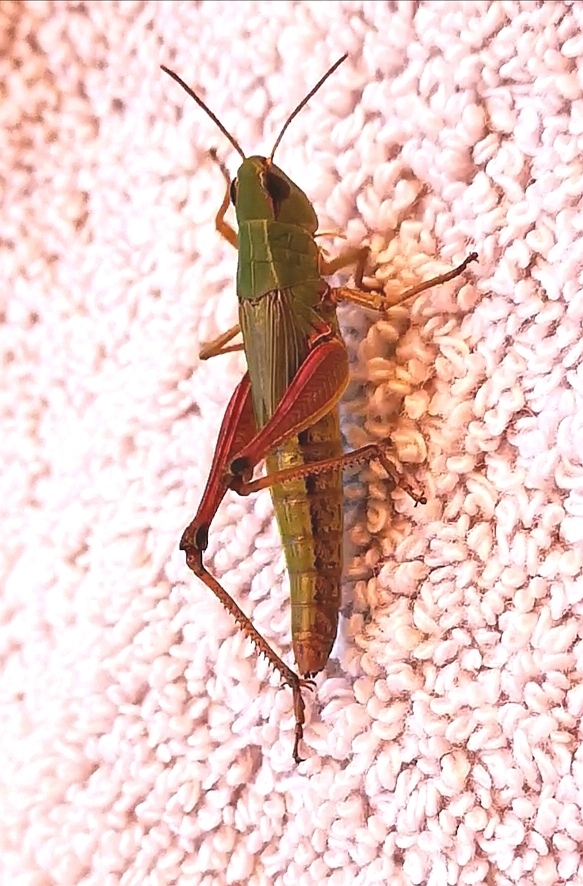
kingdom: Animalia
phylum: Arthropoda
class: Insecta
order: Orthoptera
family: Acrididae
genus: Pseudochorthippus
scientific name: Pseudochorthippus parallelus
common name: Meadow grasshopper
